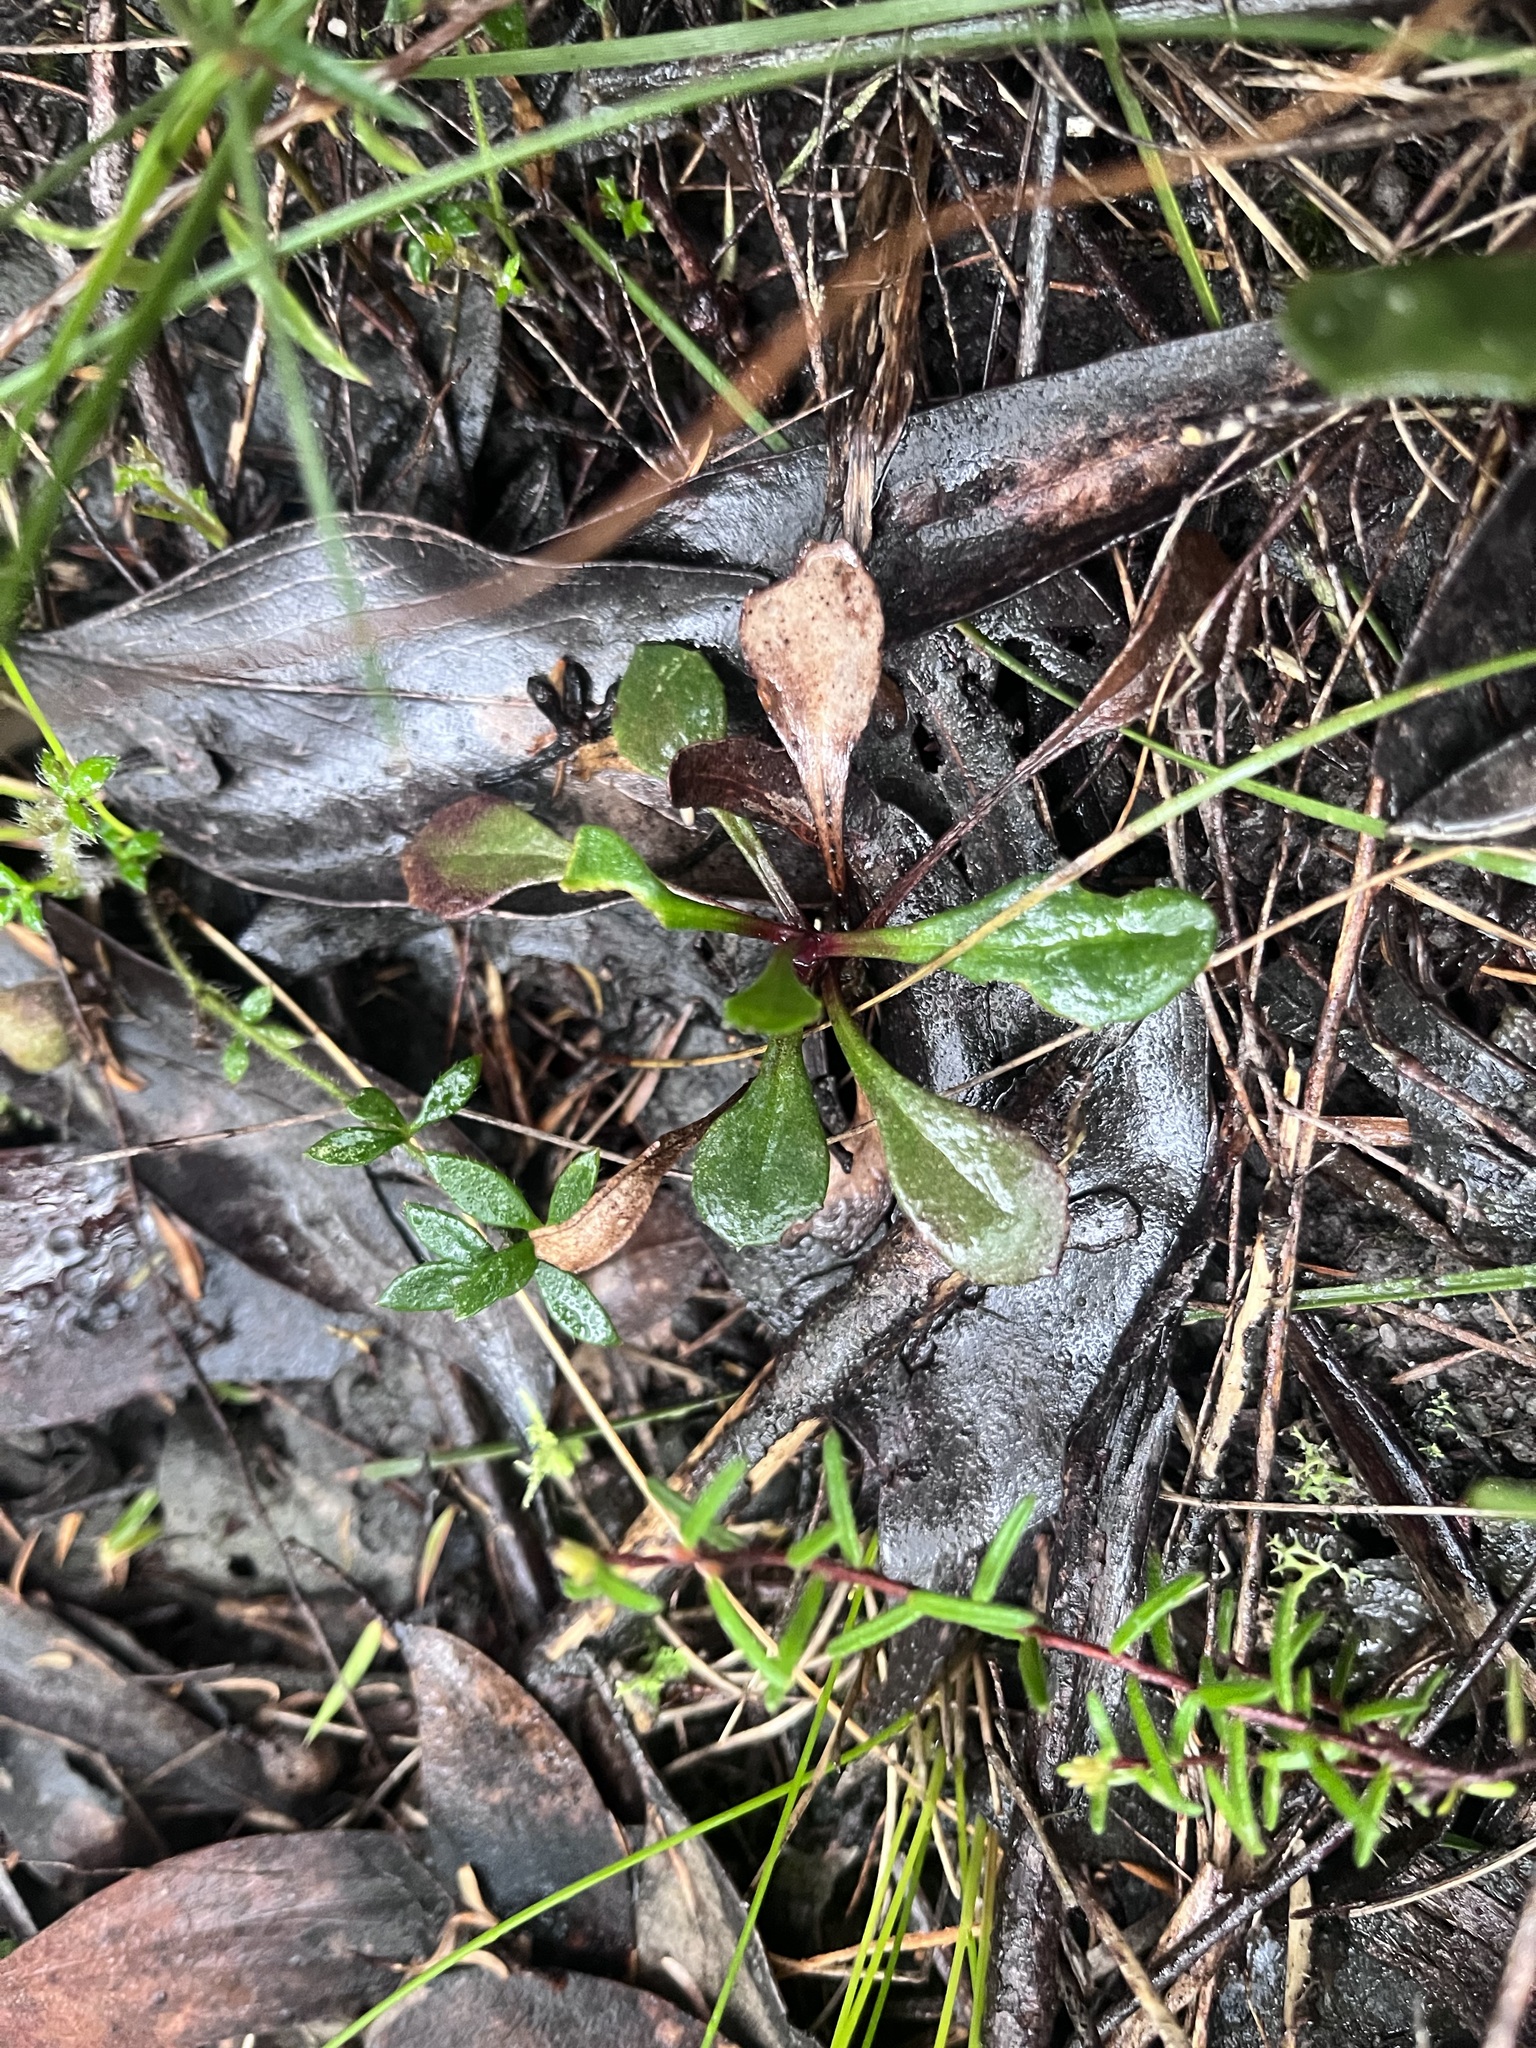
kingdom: Plantae
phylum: Tracheophyta
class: Magnoliopsida
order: Asterales
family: Asteraceae
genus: Lagenophora
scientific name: Lagenophora sublyrata ter
